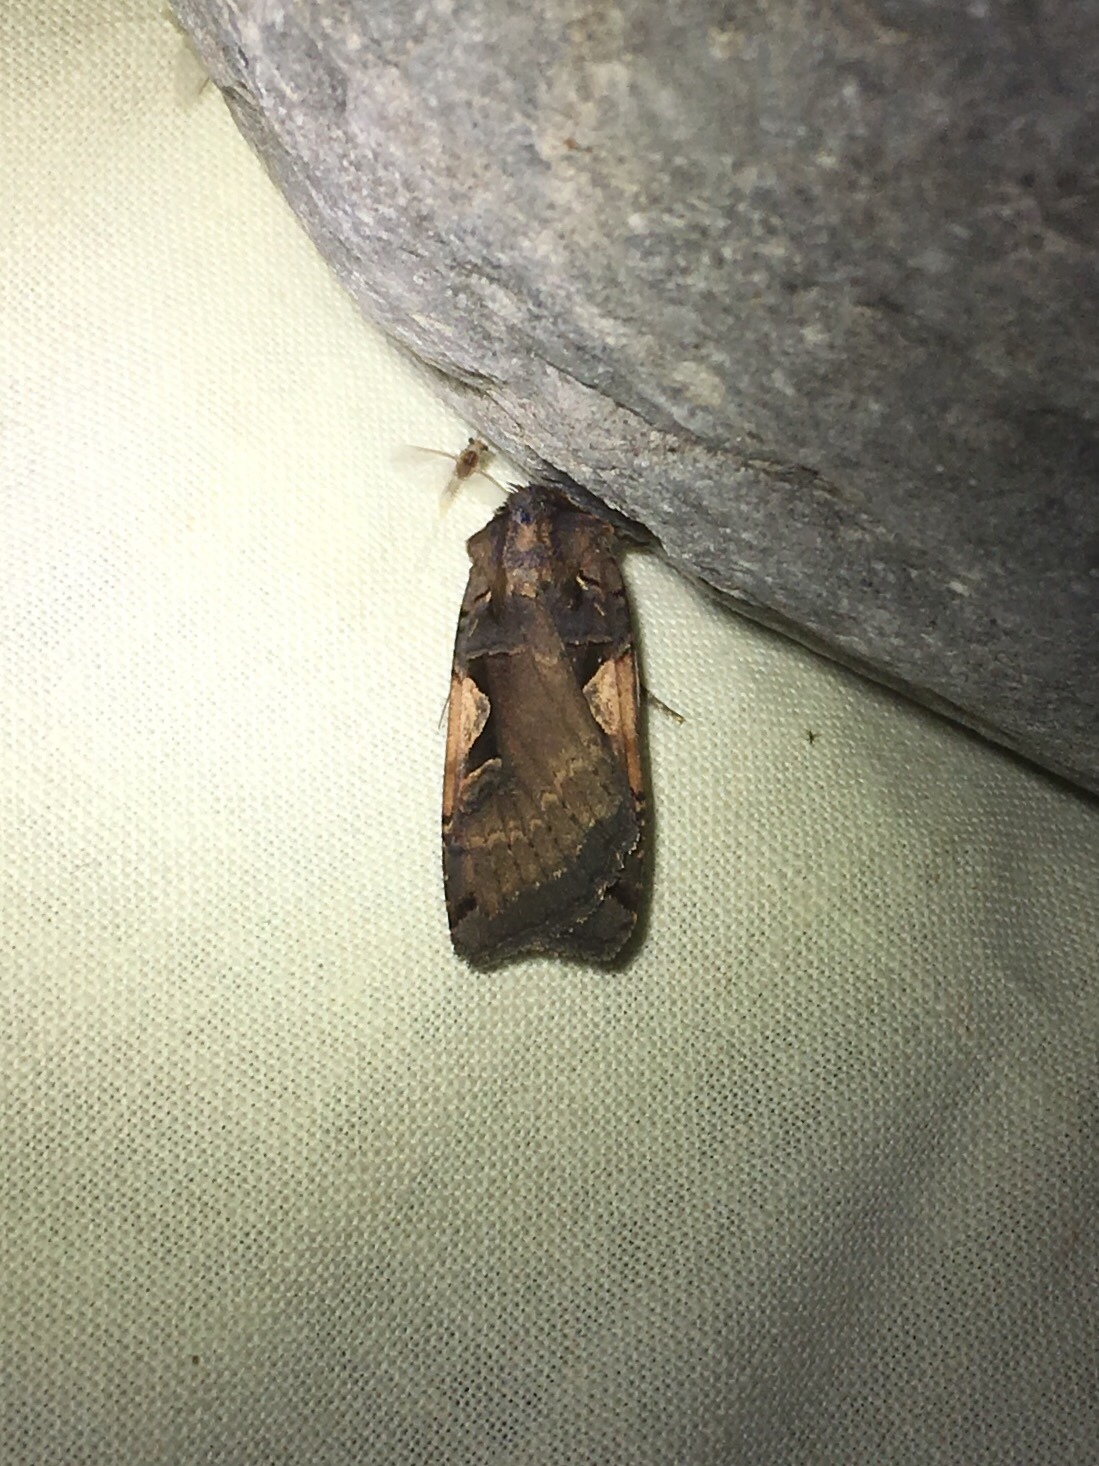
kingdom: Animalia
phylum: Arthropoda
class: Insecta
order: Lepidoptera
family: Noctuidae
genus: Xestia
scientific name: Xestia
